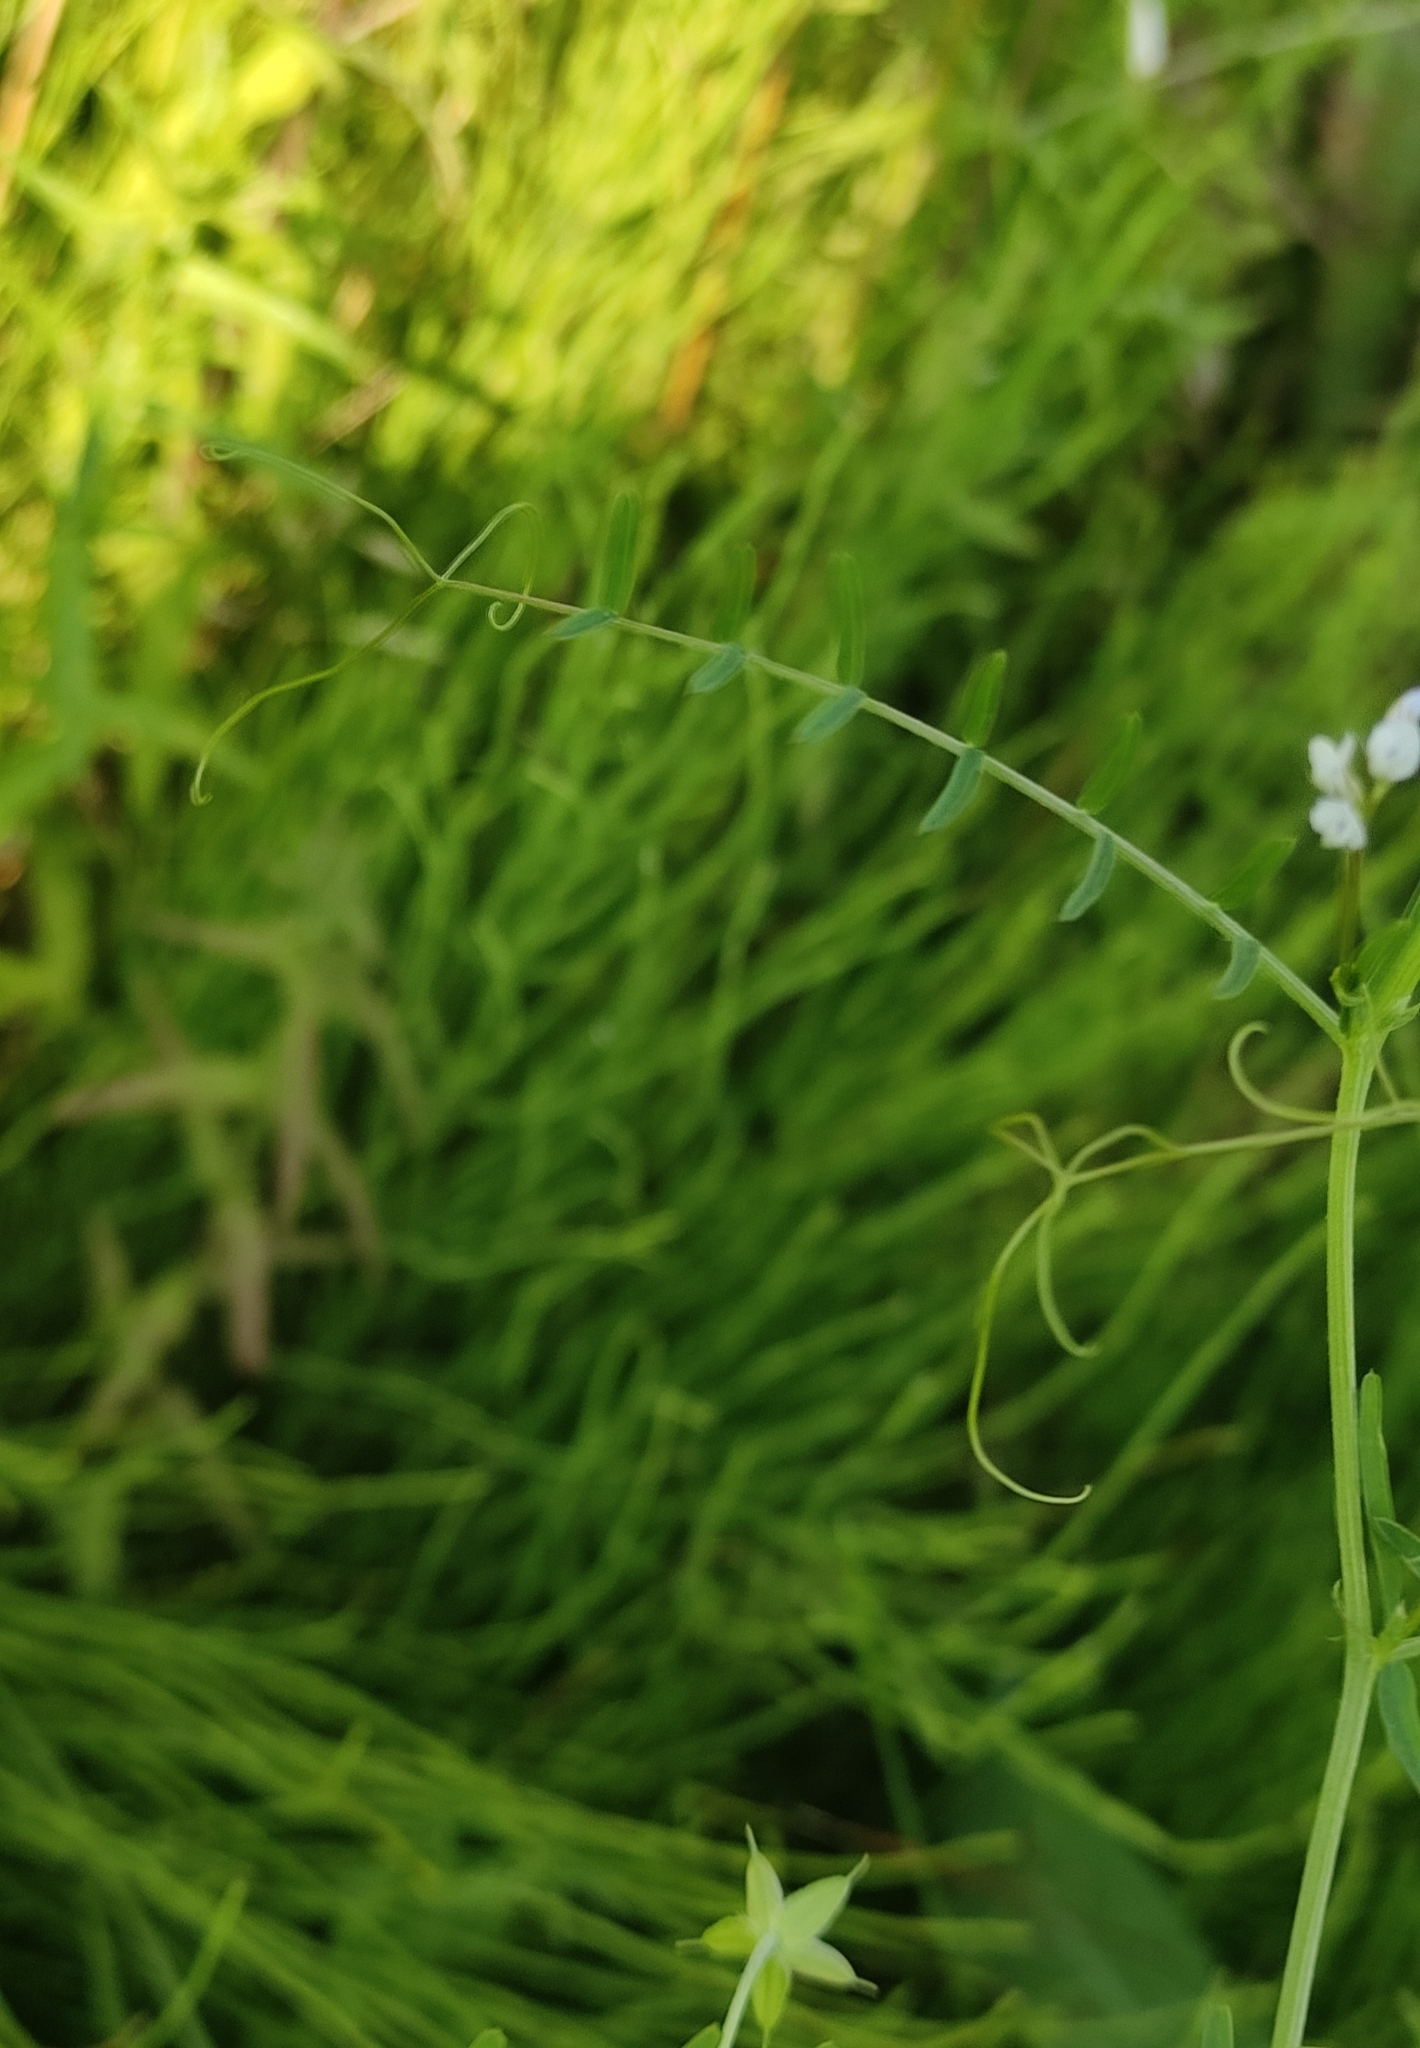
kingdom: Plantae
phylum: Tracheophyta
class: Magnoliopsida
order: Fabales
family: Fabaceae
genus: Vicia
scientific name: Vicia hirsuta
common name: Tiny vetch
